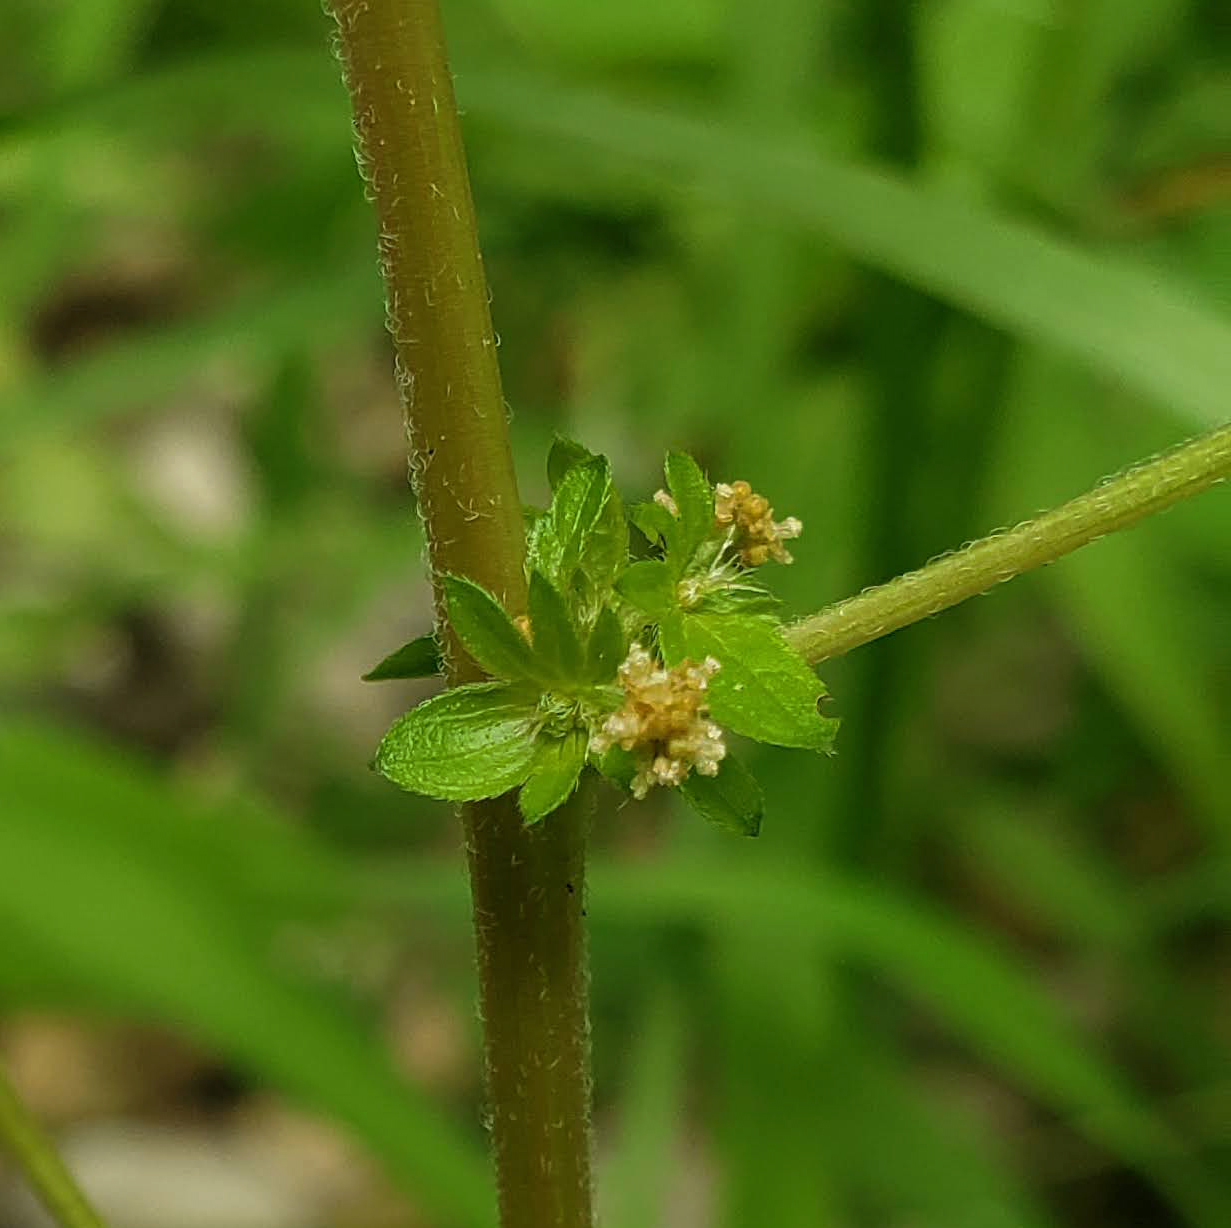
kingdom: Plantae
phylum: Tracheophyta
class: Magnoliopsida
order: Malpighiales
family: Euphorbiaceae
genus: Acalypha
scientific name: Acalypha rhomboidea
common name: Rhombic copperleaf
